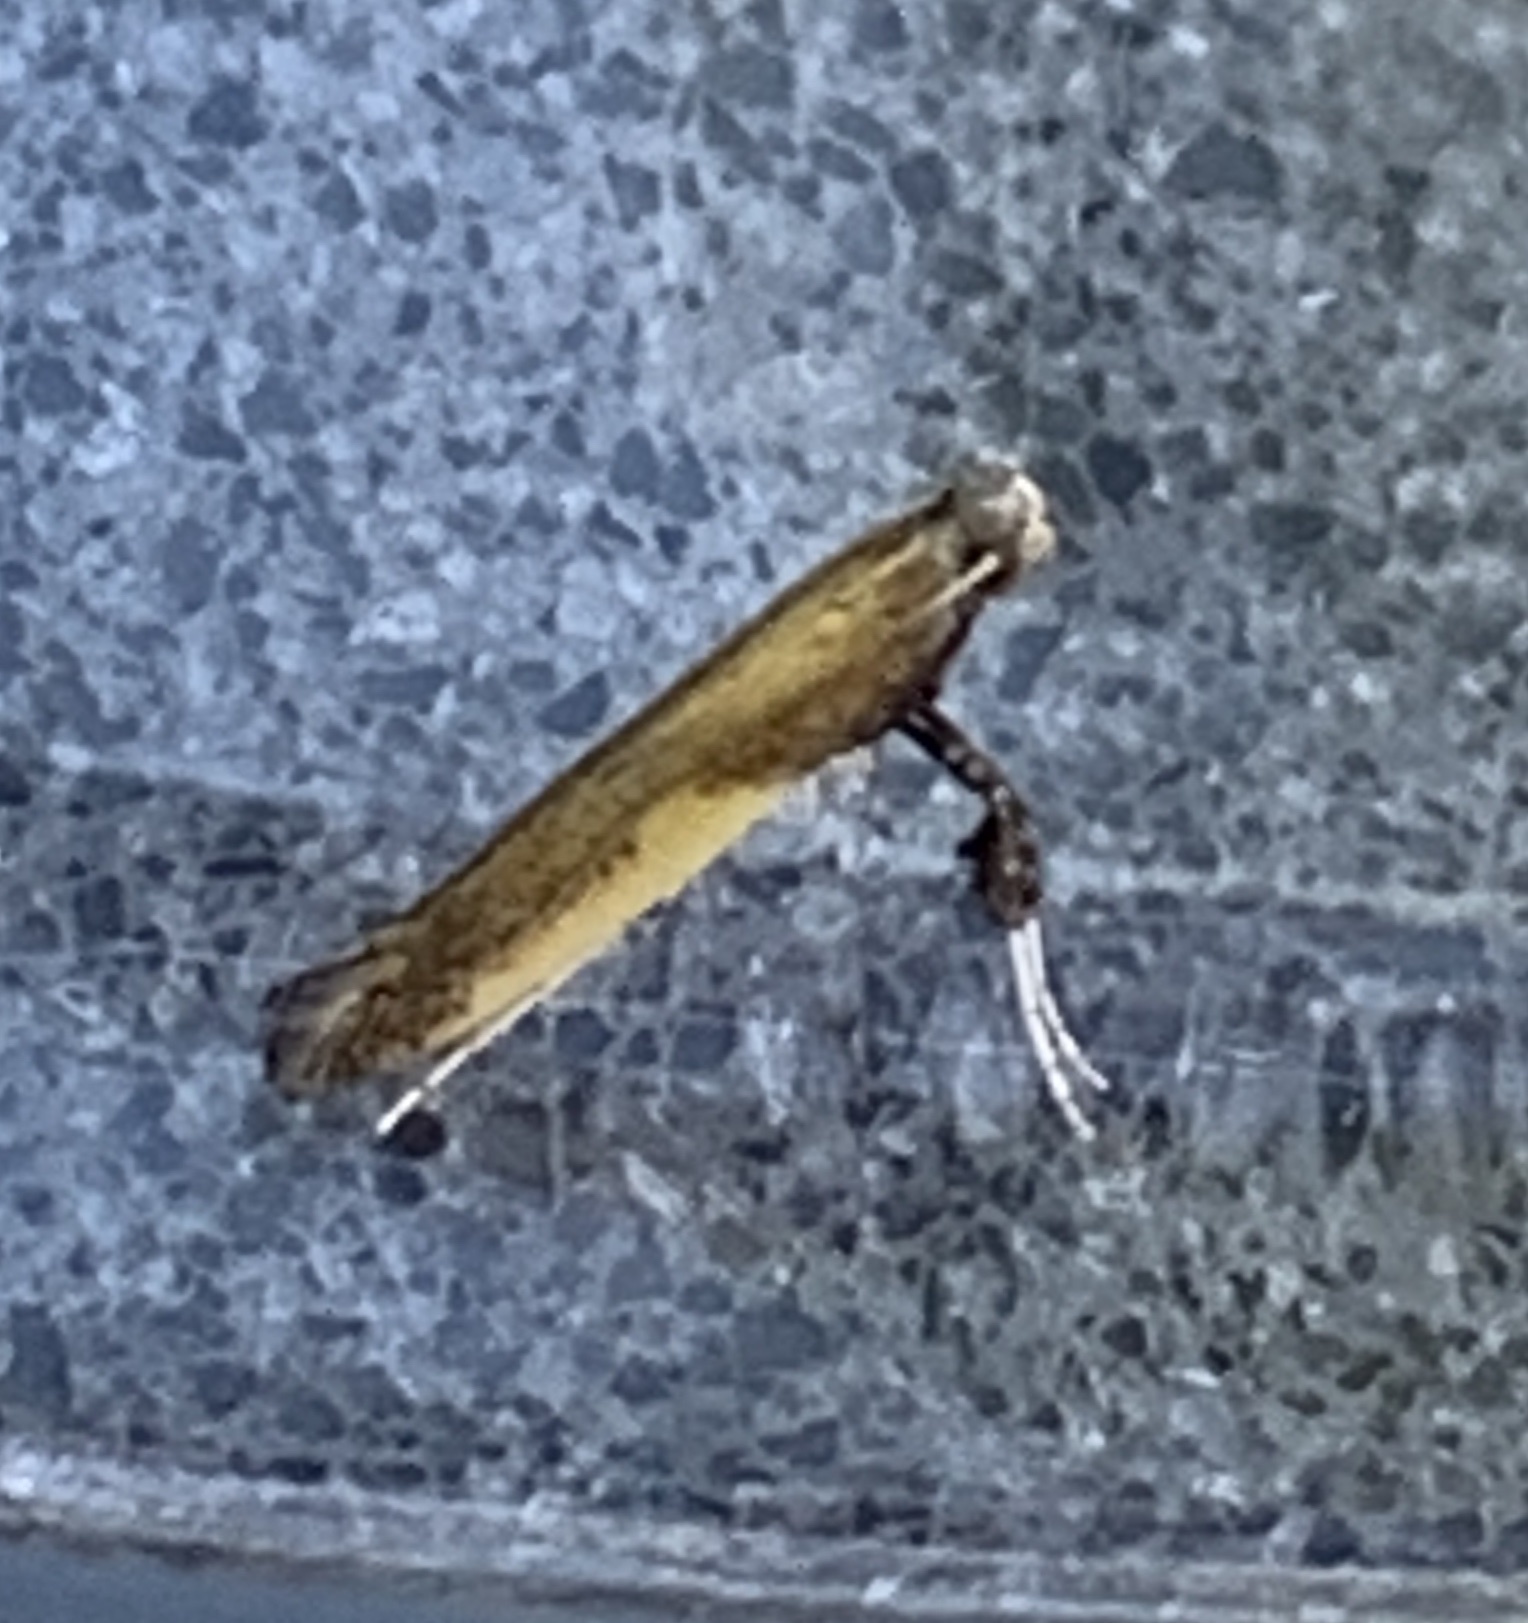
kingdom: Animalia
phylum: Arthropoda
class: Insecta
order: Lepidoptera
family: Gracillariidae
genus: Caloptilia
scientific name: Caloptilia azaleella
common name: Azalea leafminer
